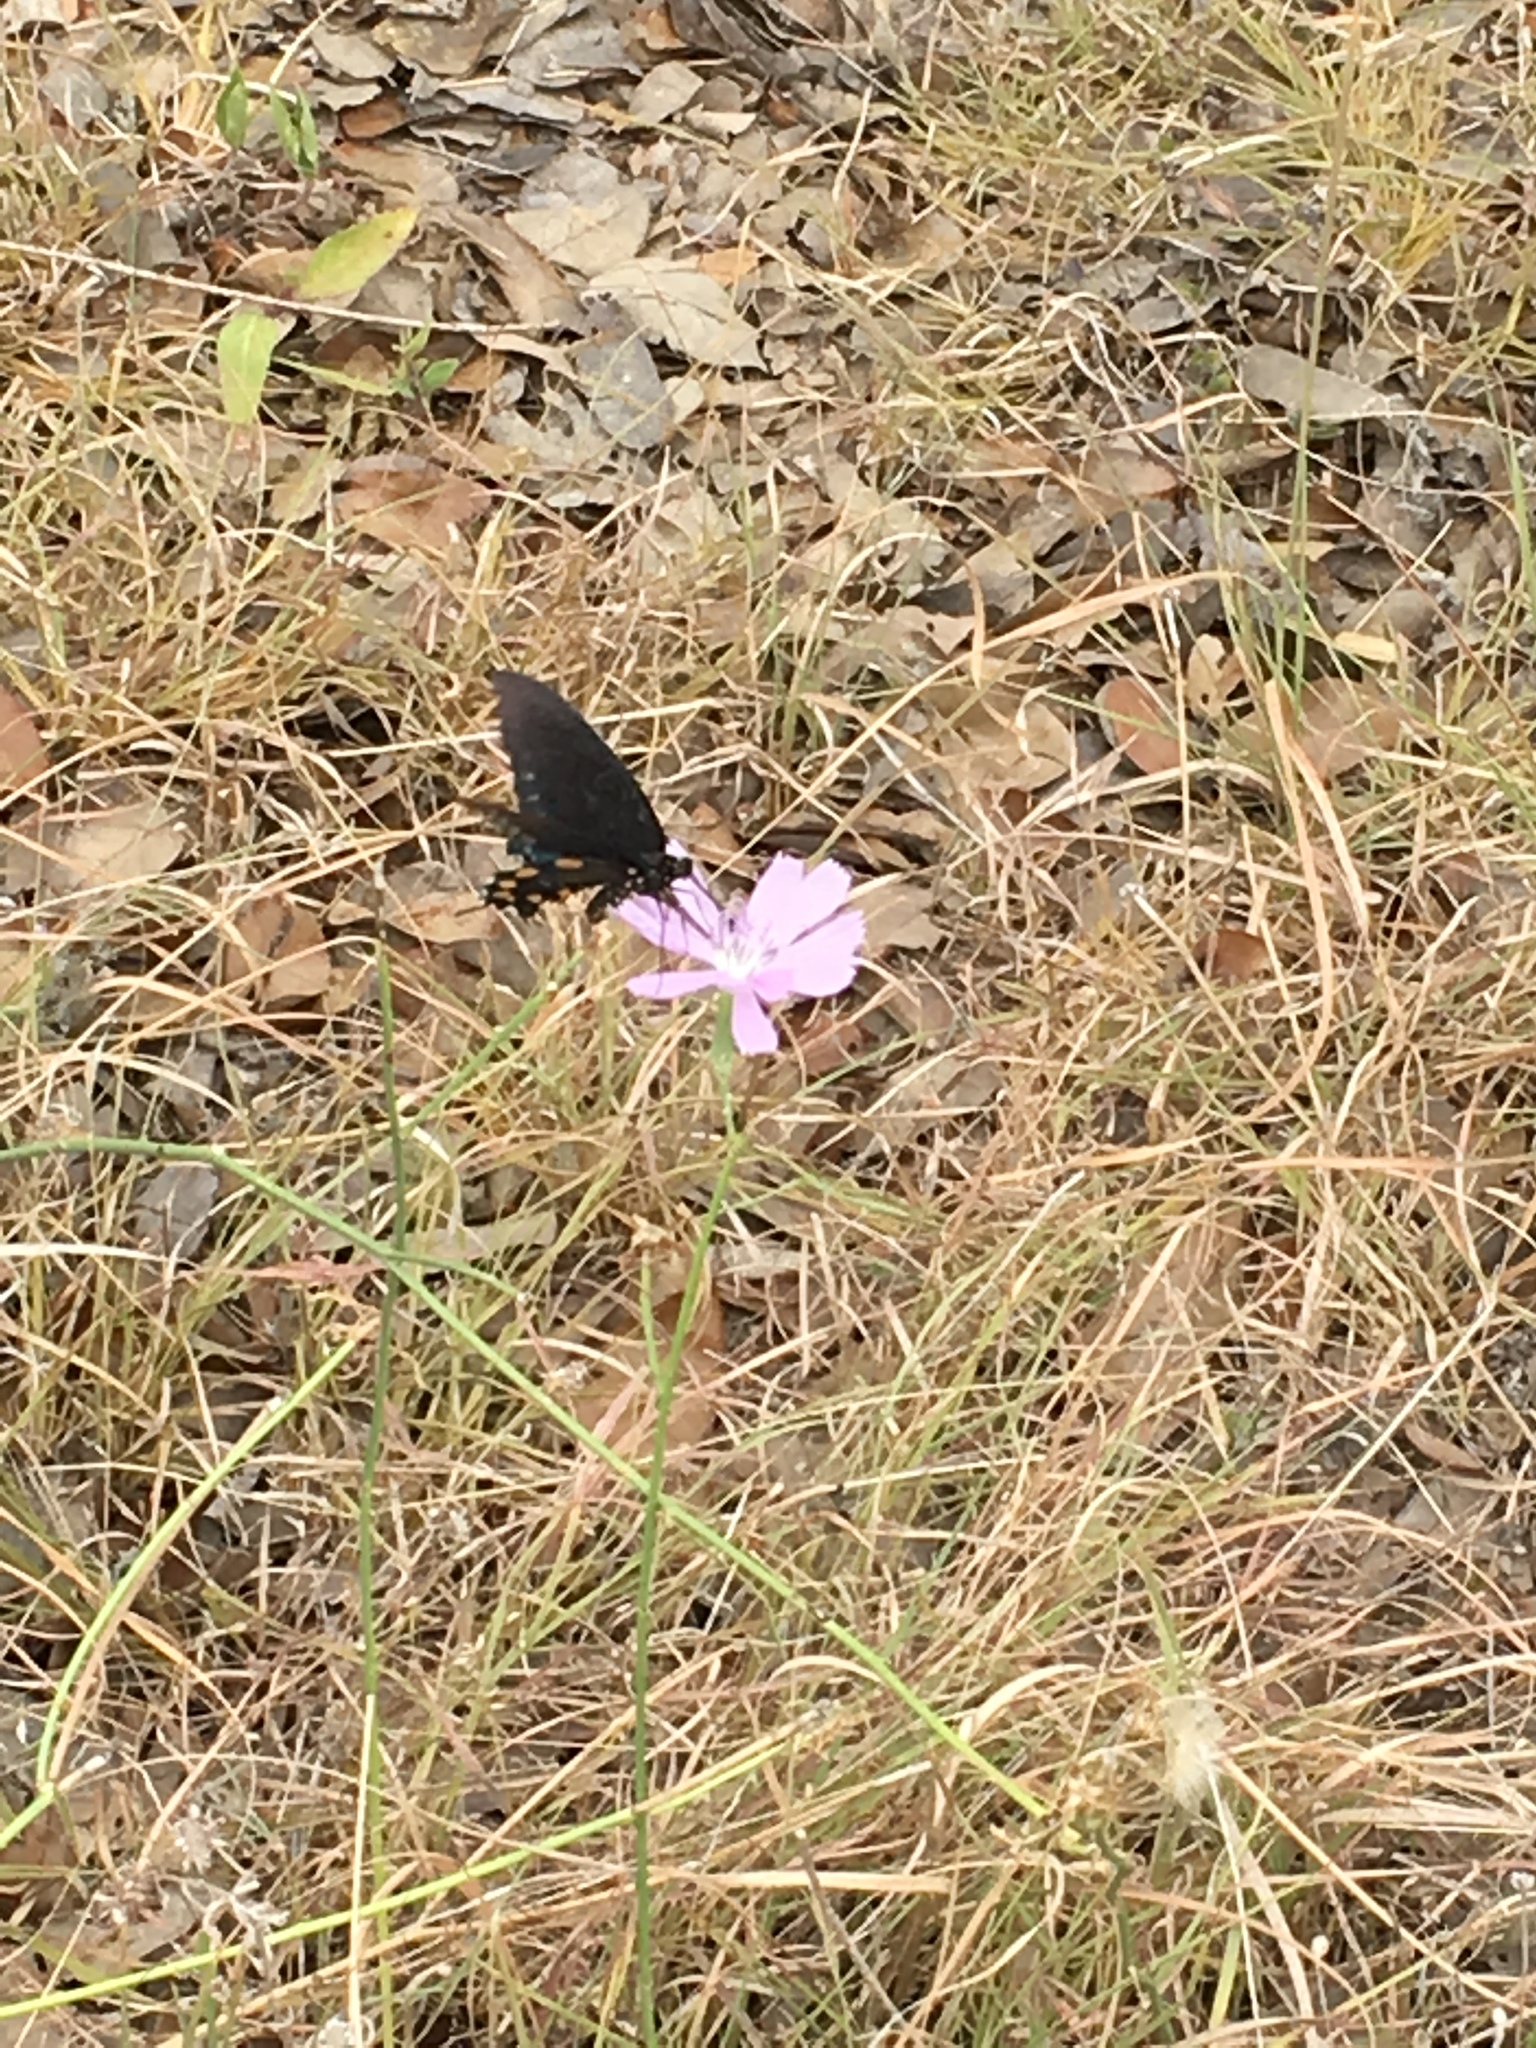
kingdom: Animalia
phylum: Arthropoda
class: Insecta
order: Lepidoptera
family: Papilionidae
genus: Battus
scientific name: Battus philenor
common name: Pipevine swallowtail
